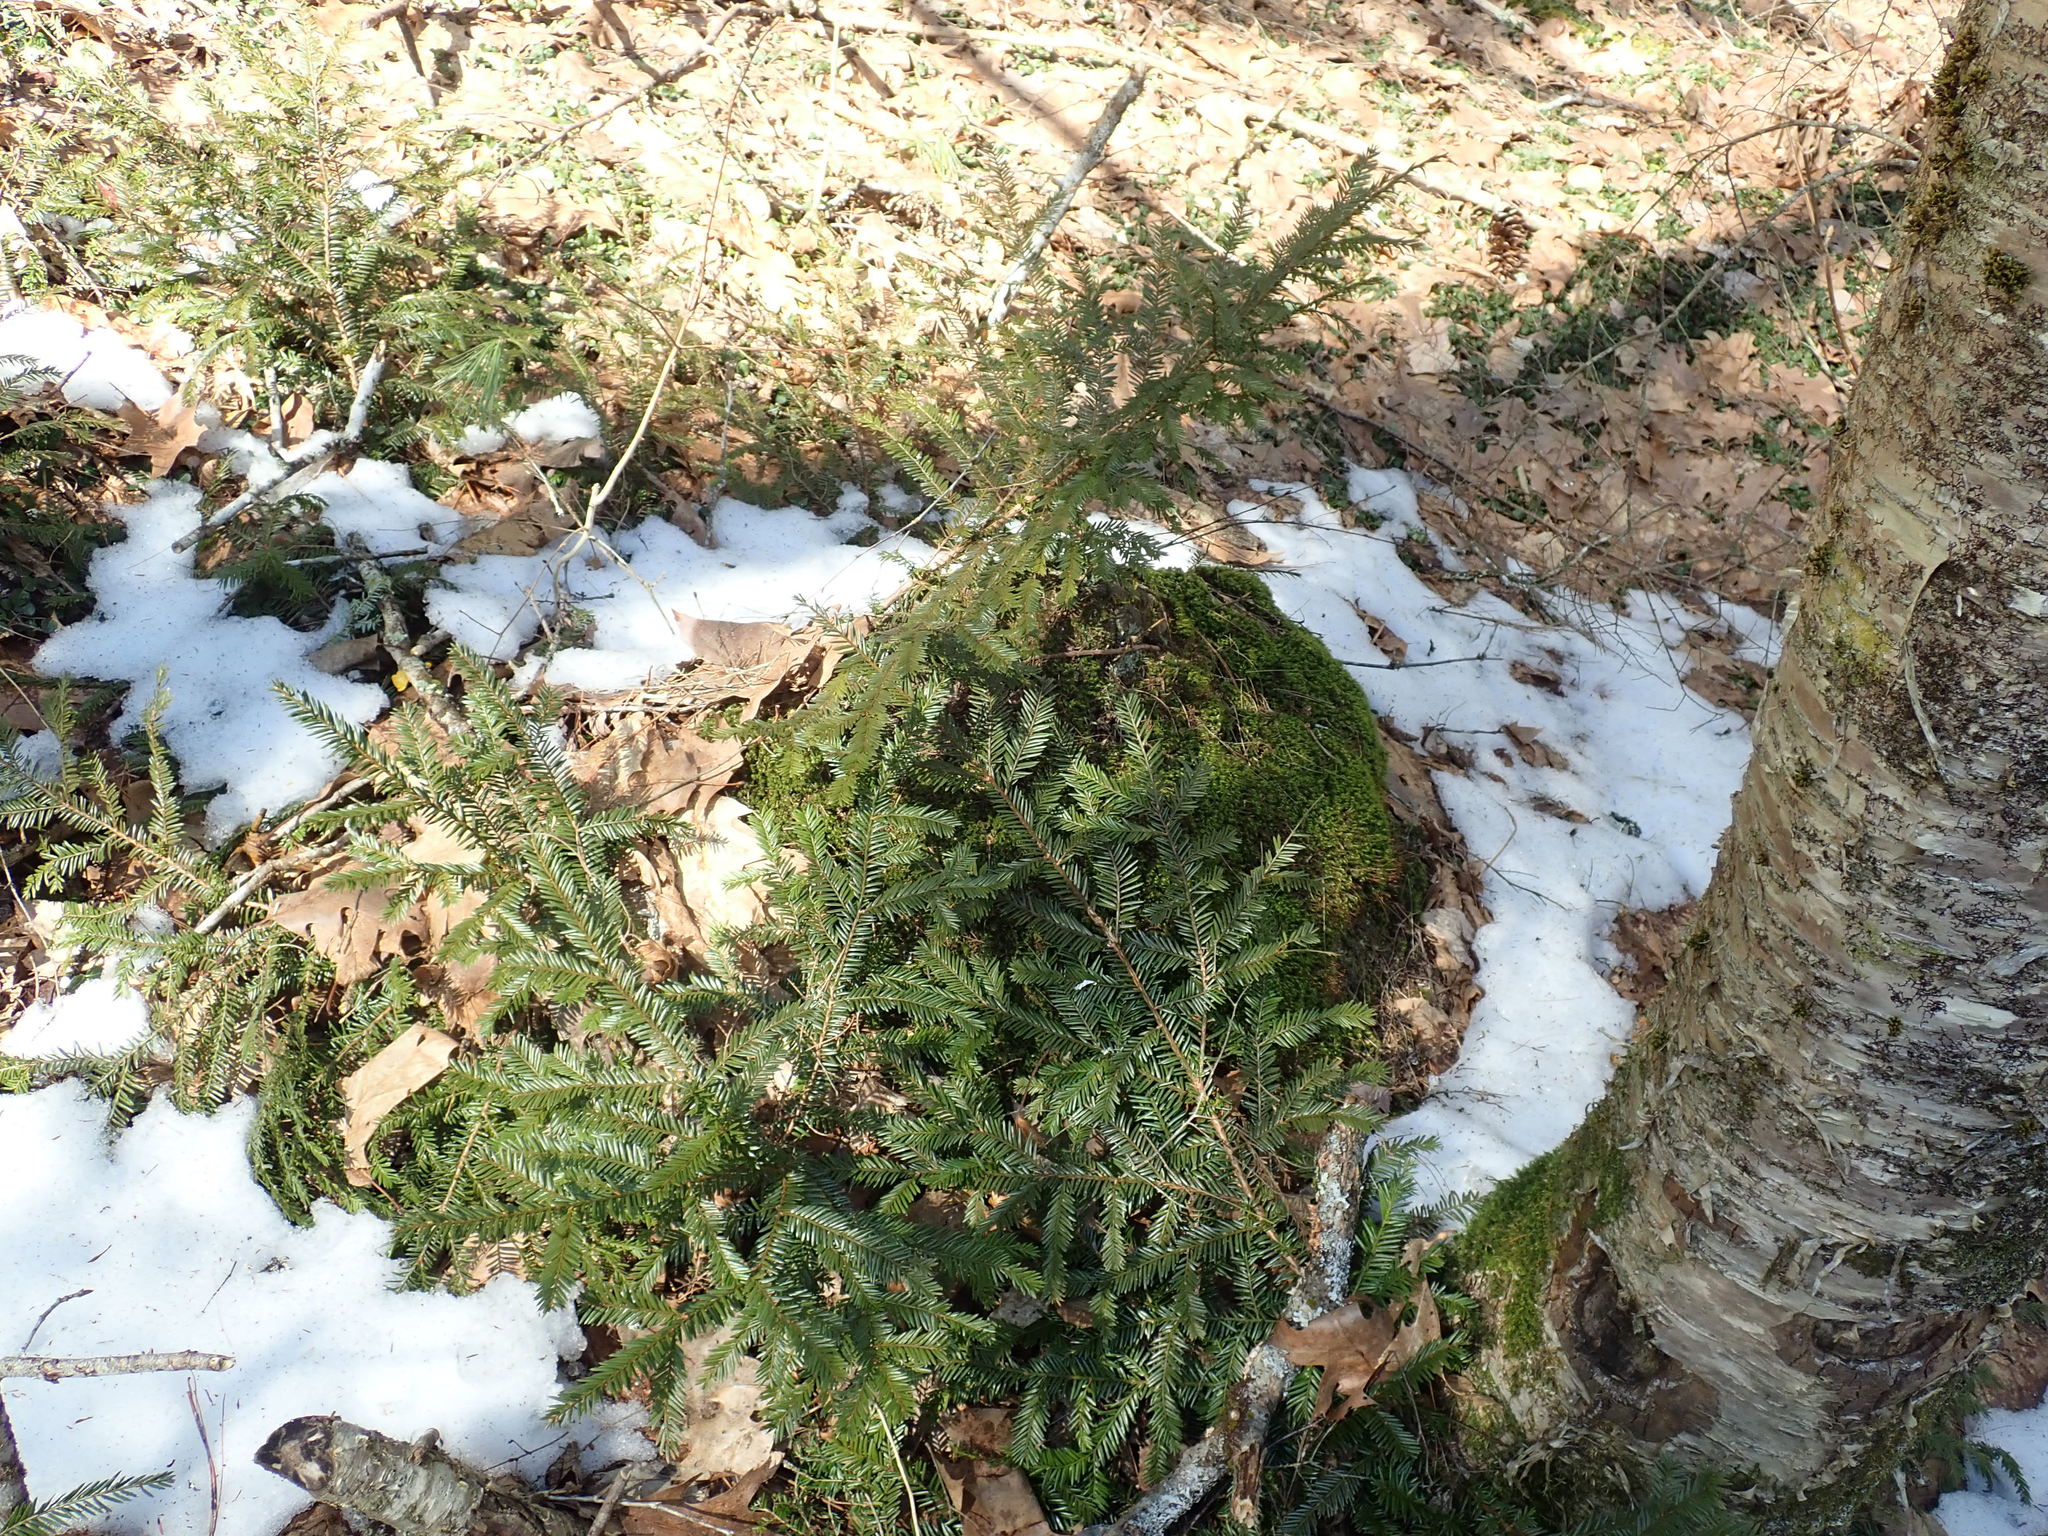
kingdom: Plantae
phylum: Tracheophyta
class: Pinopsida
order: Pinales
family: Taxaceae
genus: Taxus
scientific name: Taxus canadensis
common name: American yew
